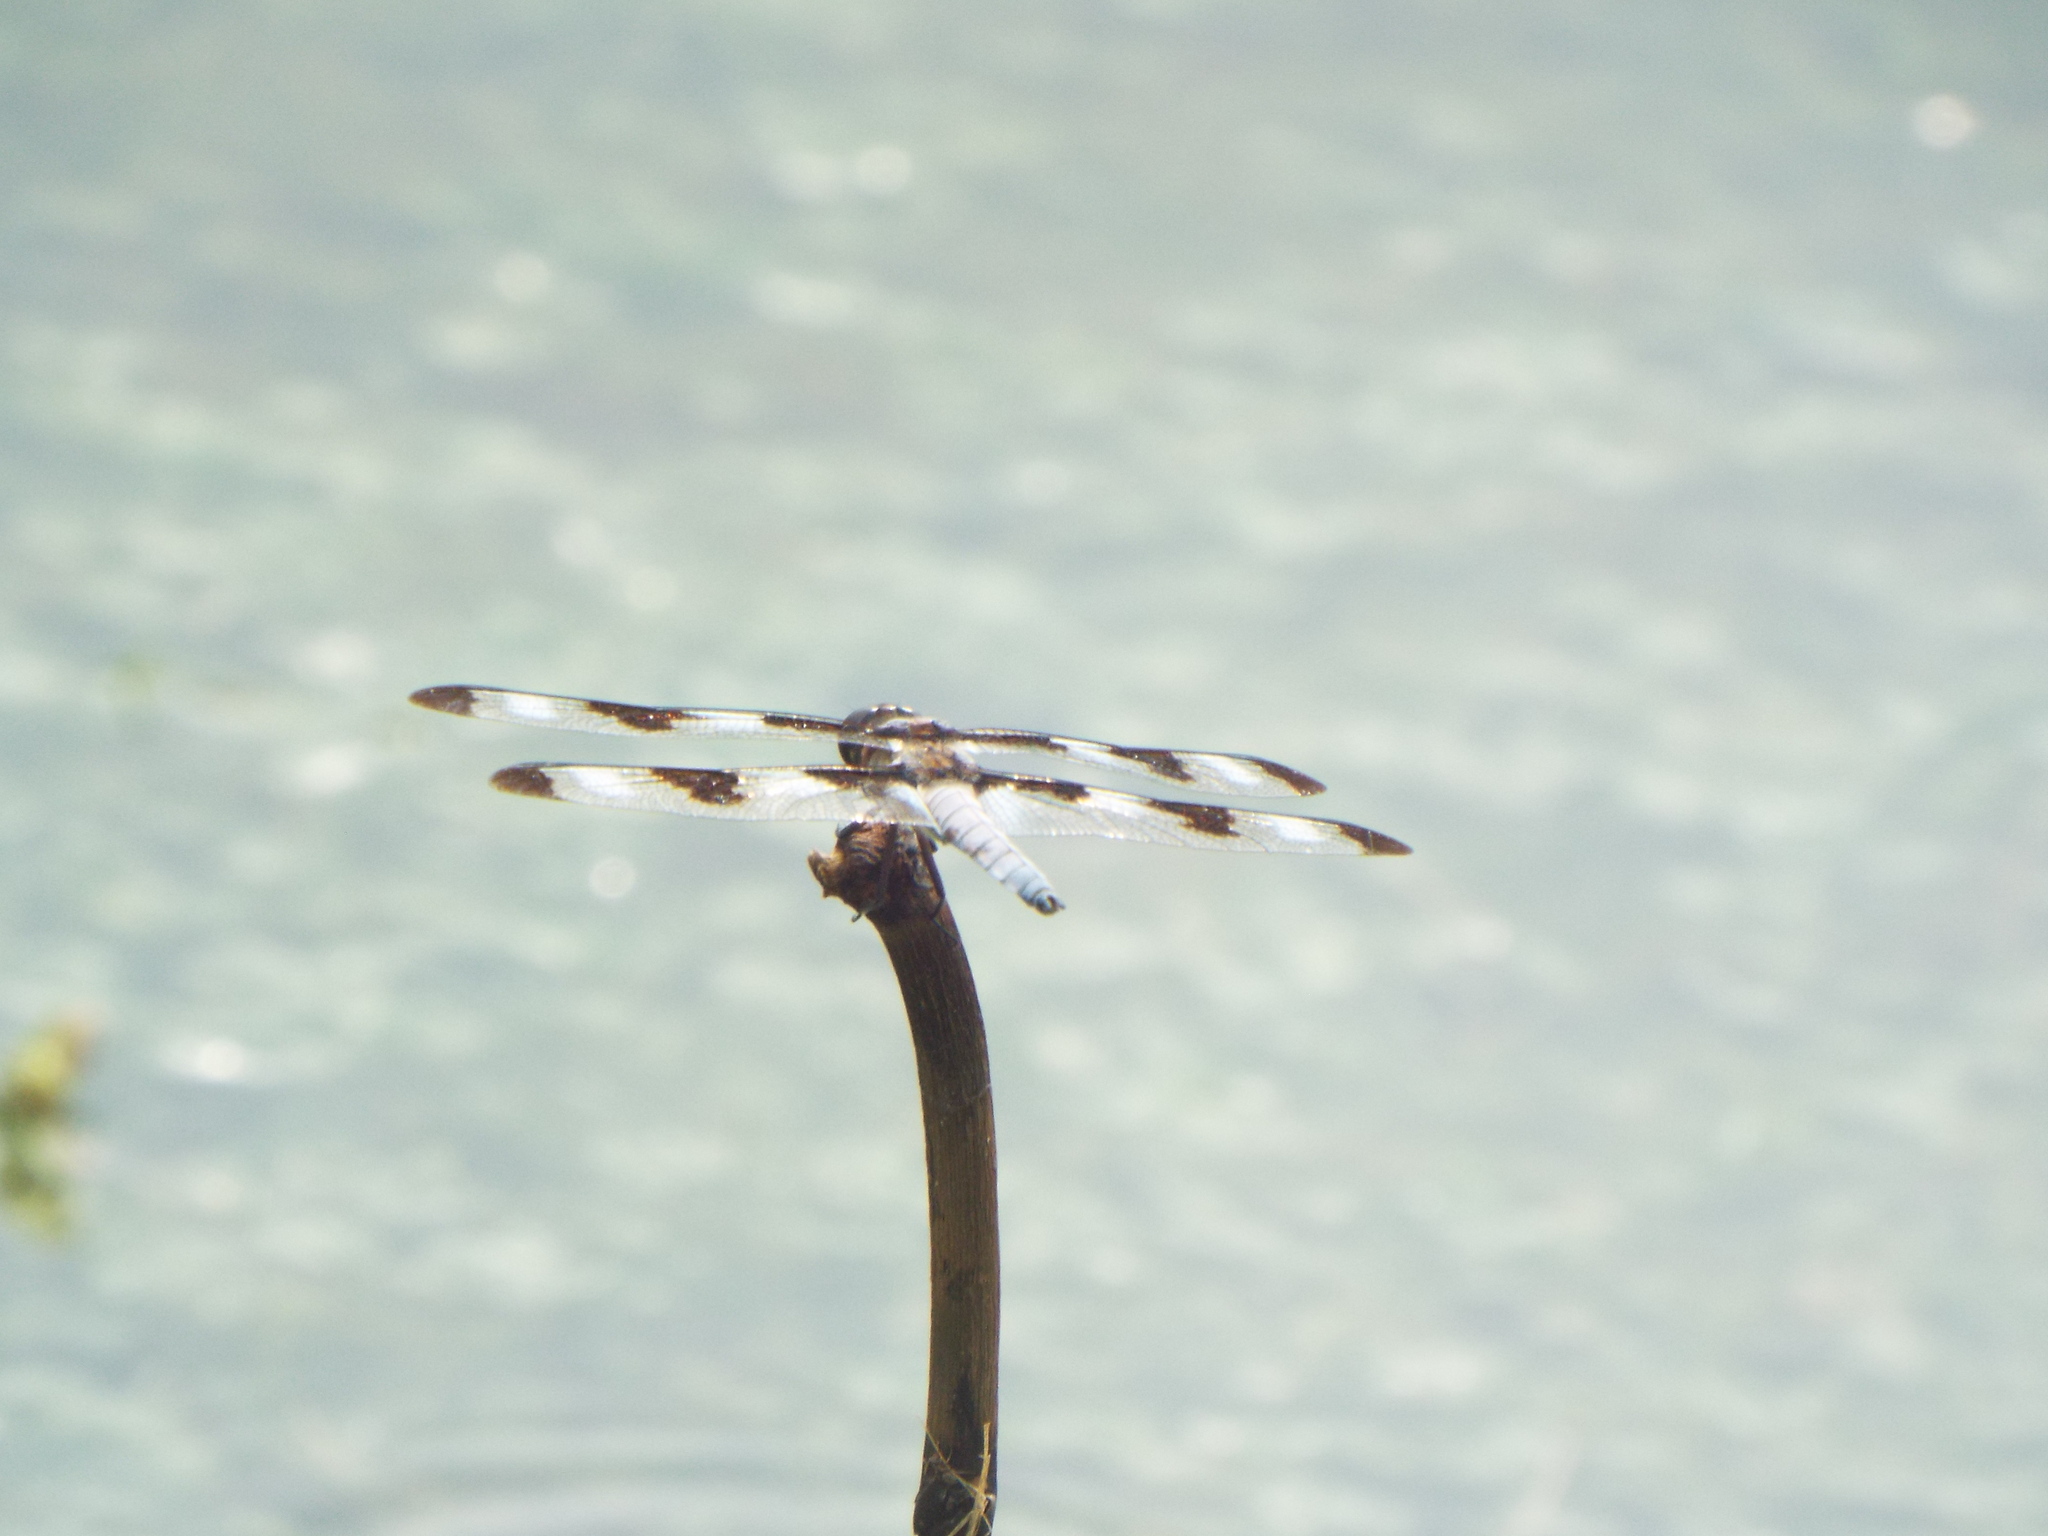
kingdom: Animalia
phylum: Arthropoda
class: Insecta
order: Odonata
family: Libellulidae
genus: Libellula
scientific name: Libellula pulchella
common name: Twelve-spotted skimmer
